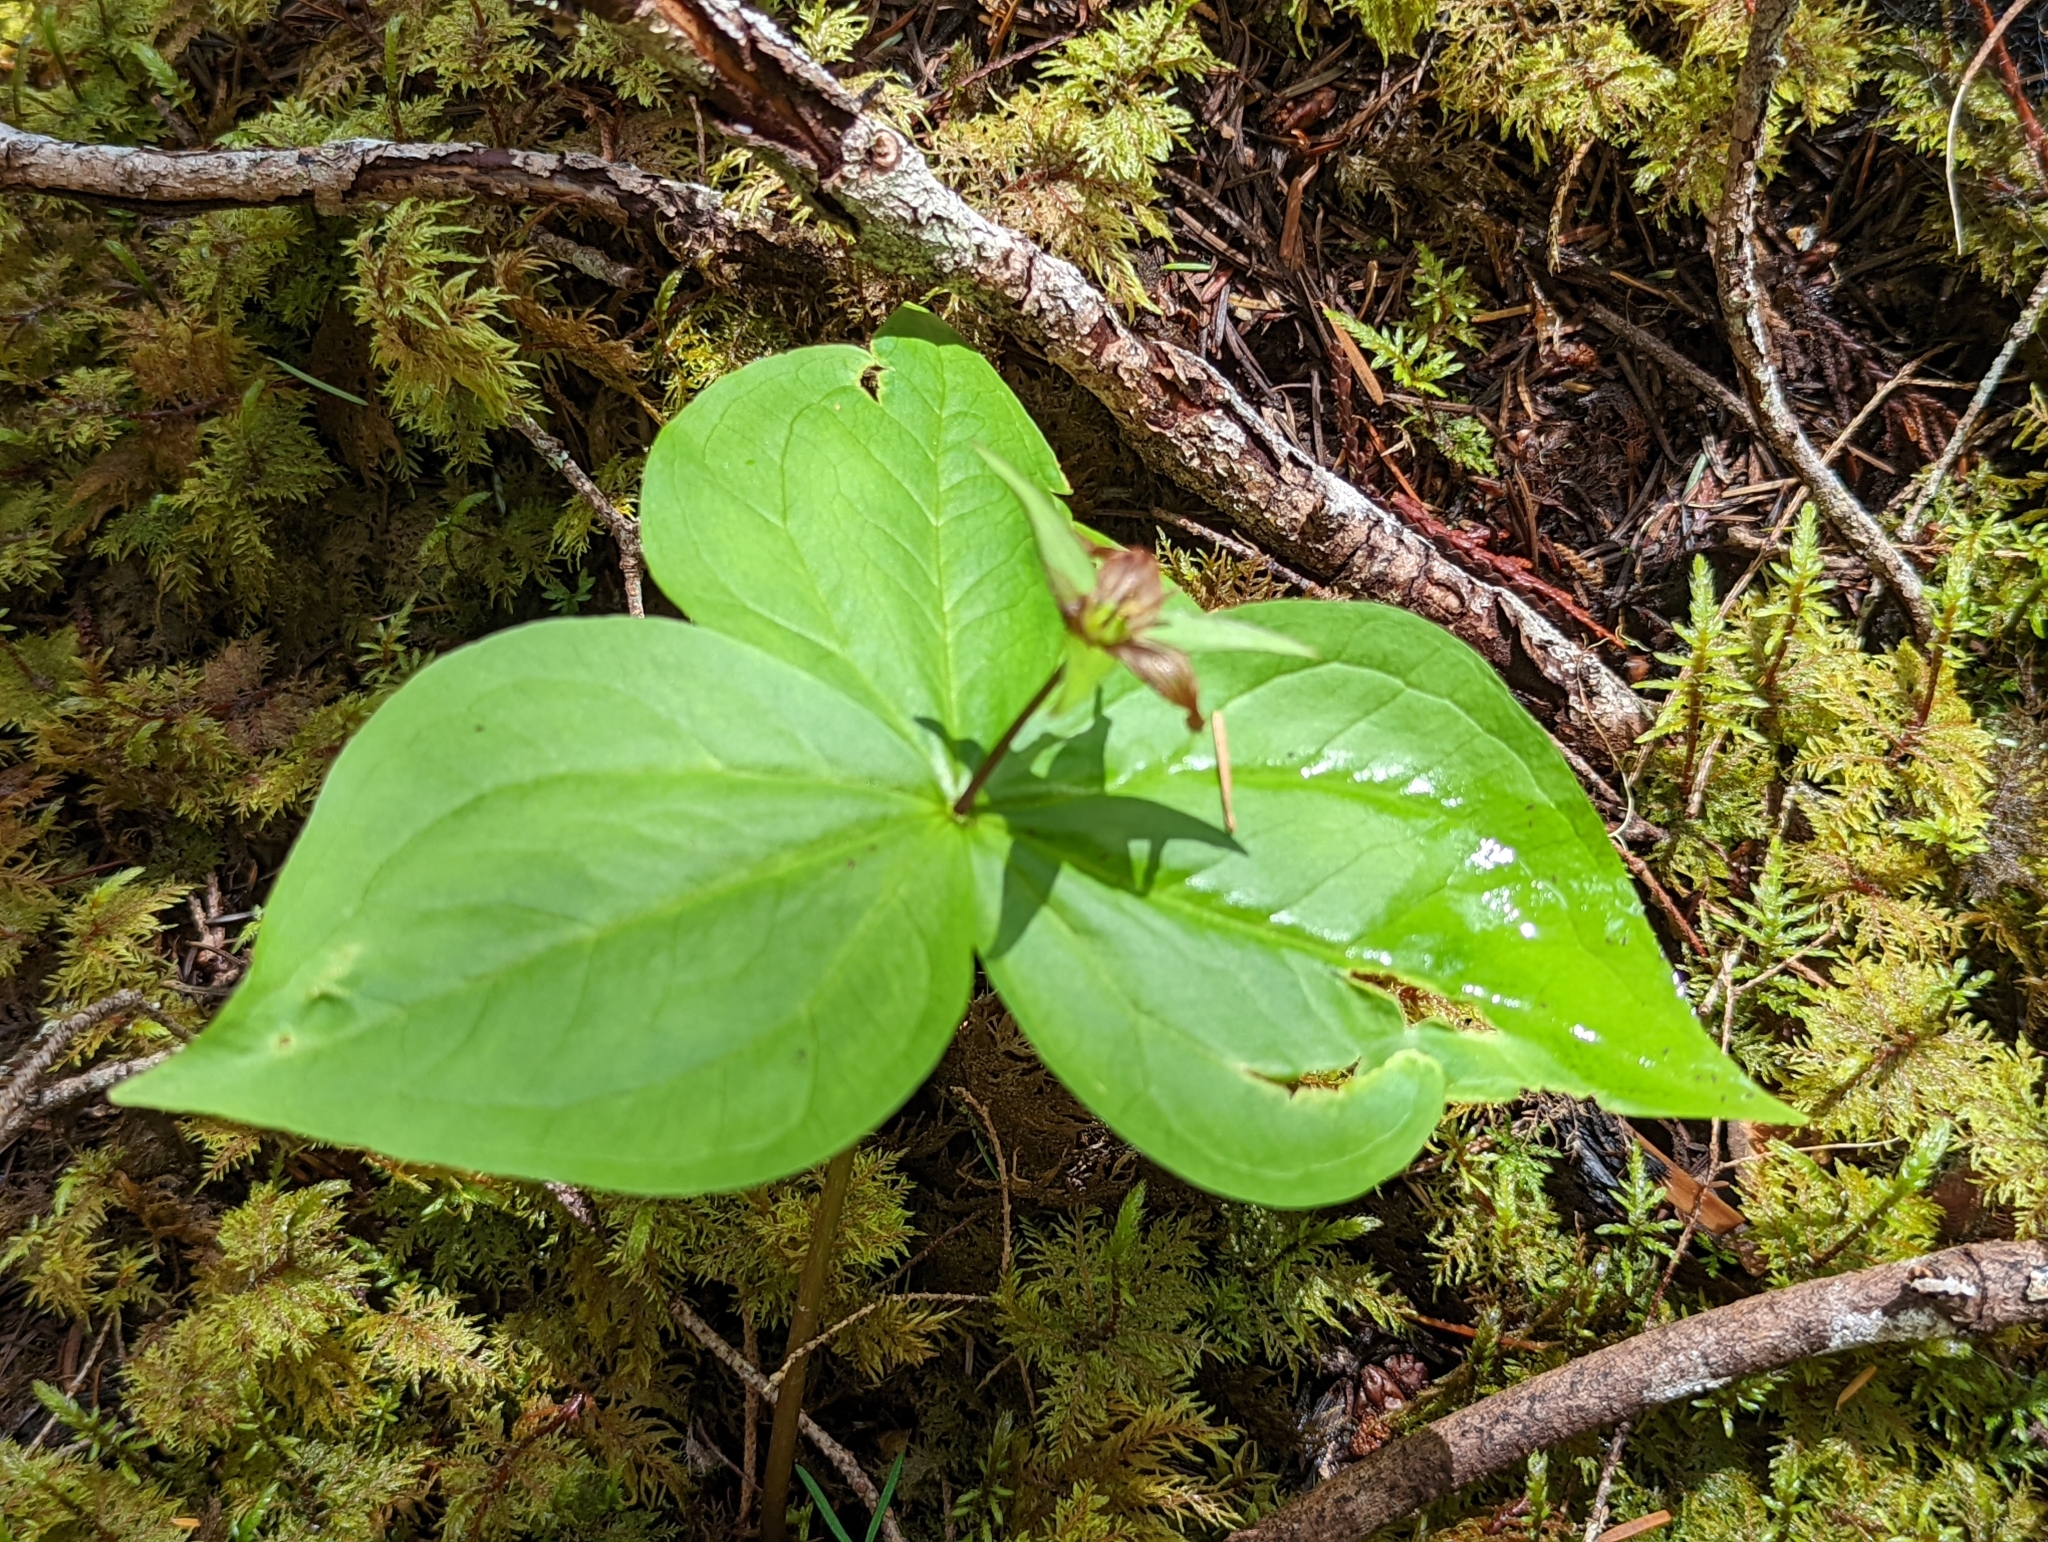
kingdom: Plantae
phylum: Tracheophyta
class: Liliopsida
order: Liliales
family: Melanthiaceae
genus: Trillium
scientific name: Trillium ovatum
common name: Pacific trillium
